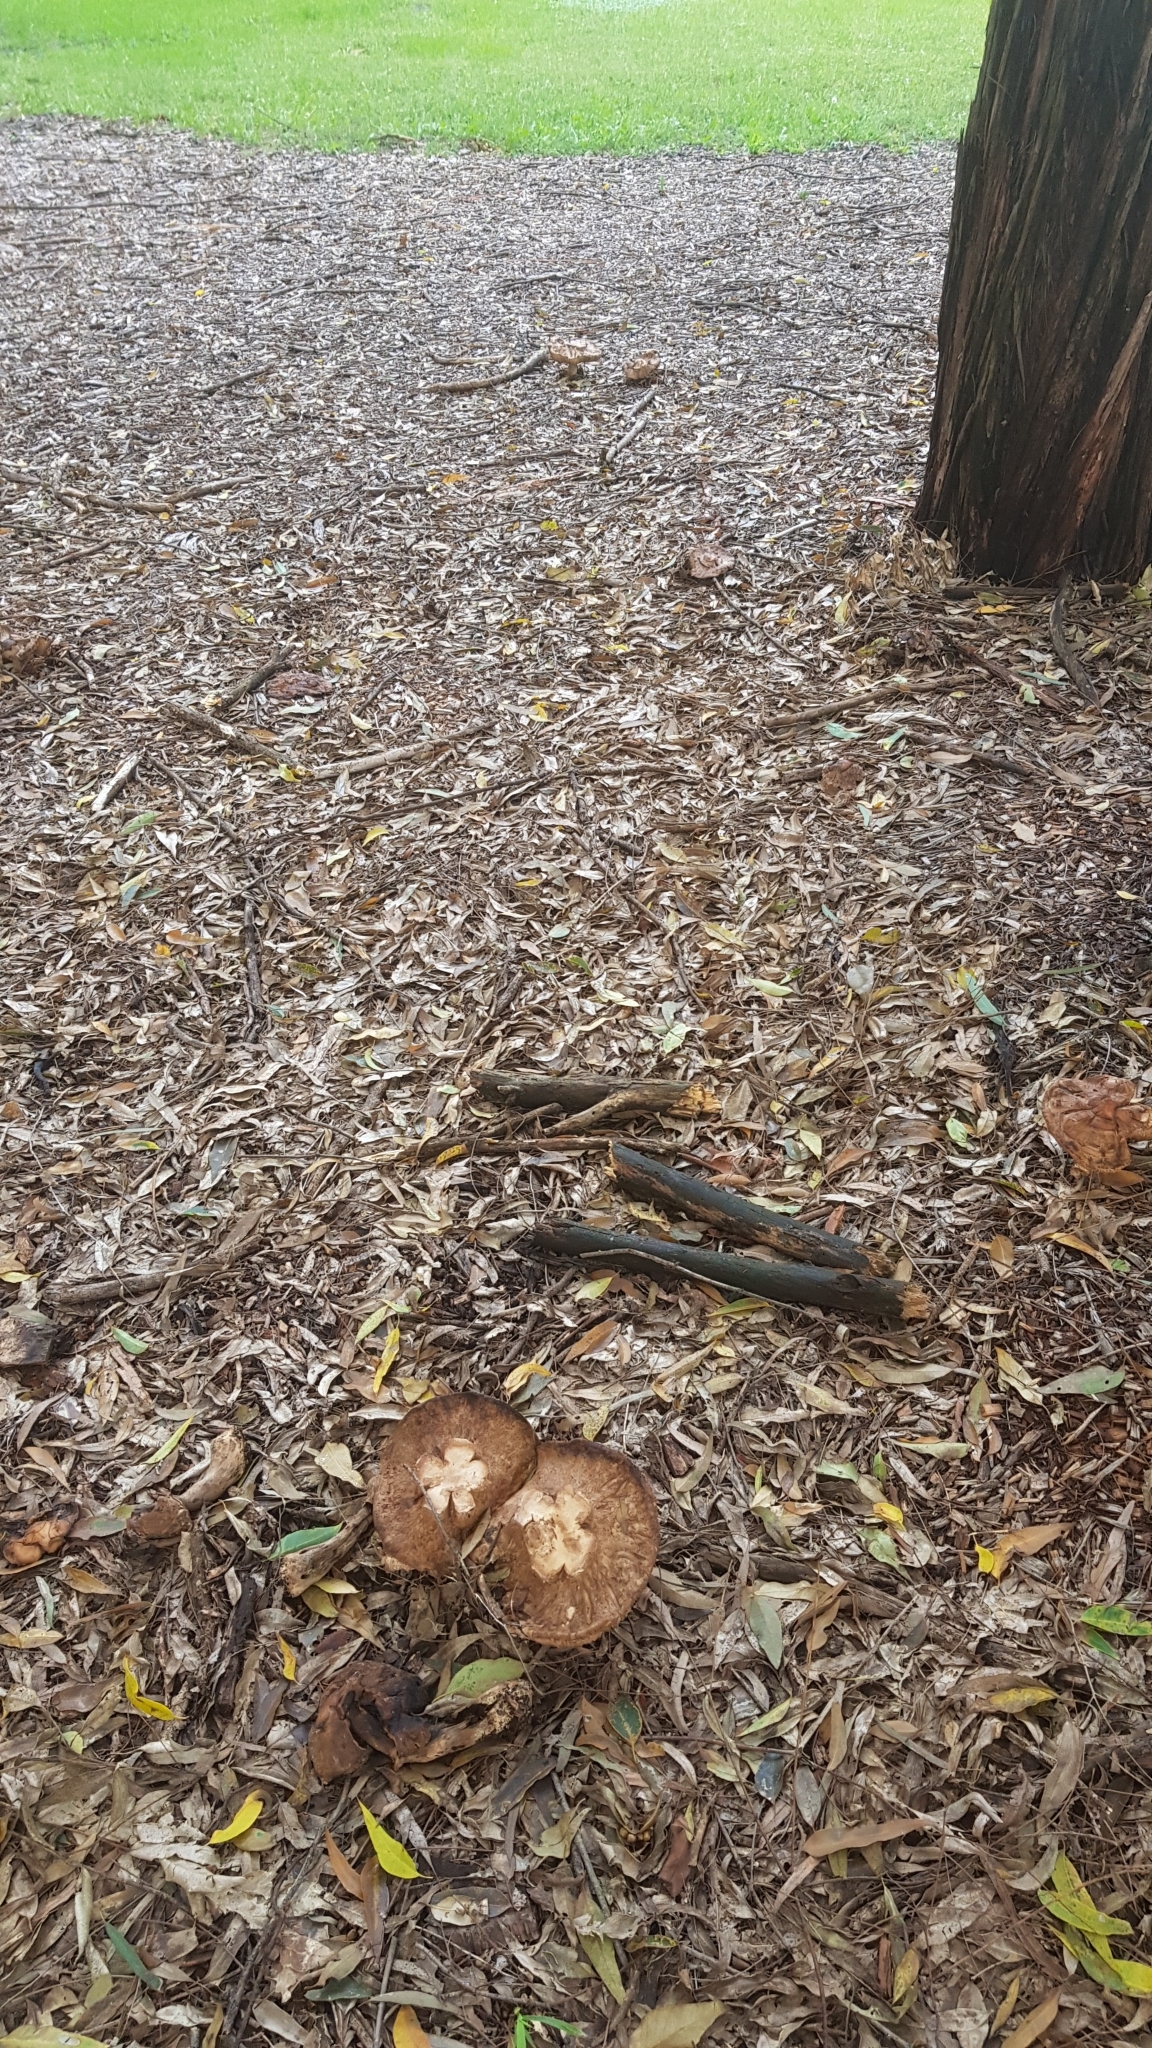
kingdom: Fungi
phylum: Basidiomycota
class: Agaricomycetes
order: Agaricales
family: Agaricaceae
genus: Chlorophyllum
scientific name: Chlorophyllum nothorhacodes
